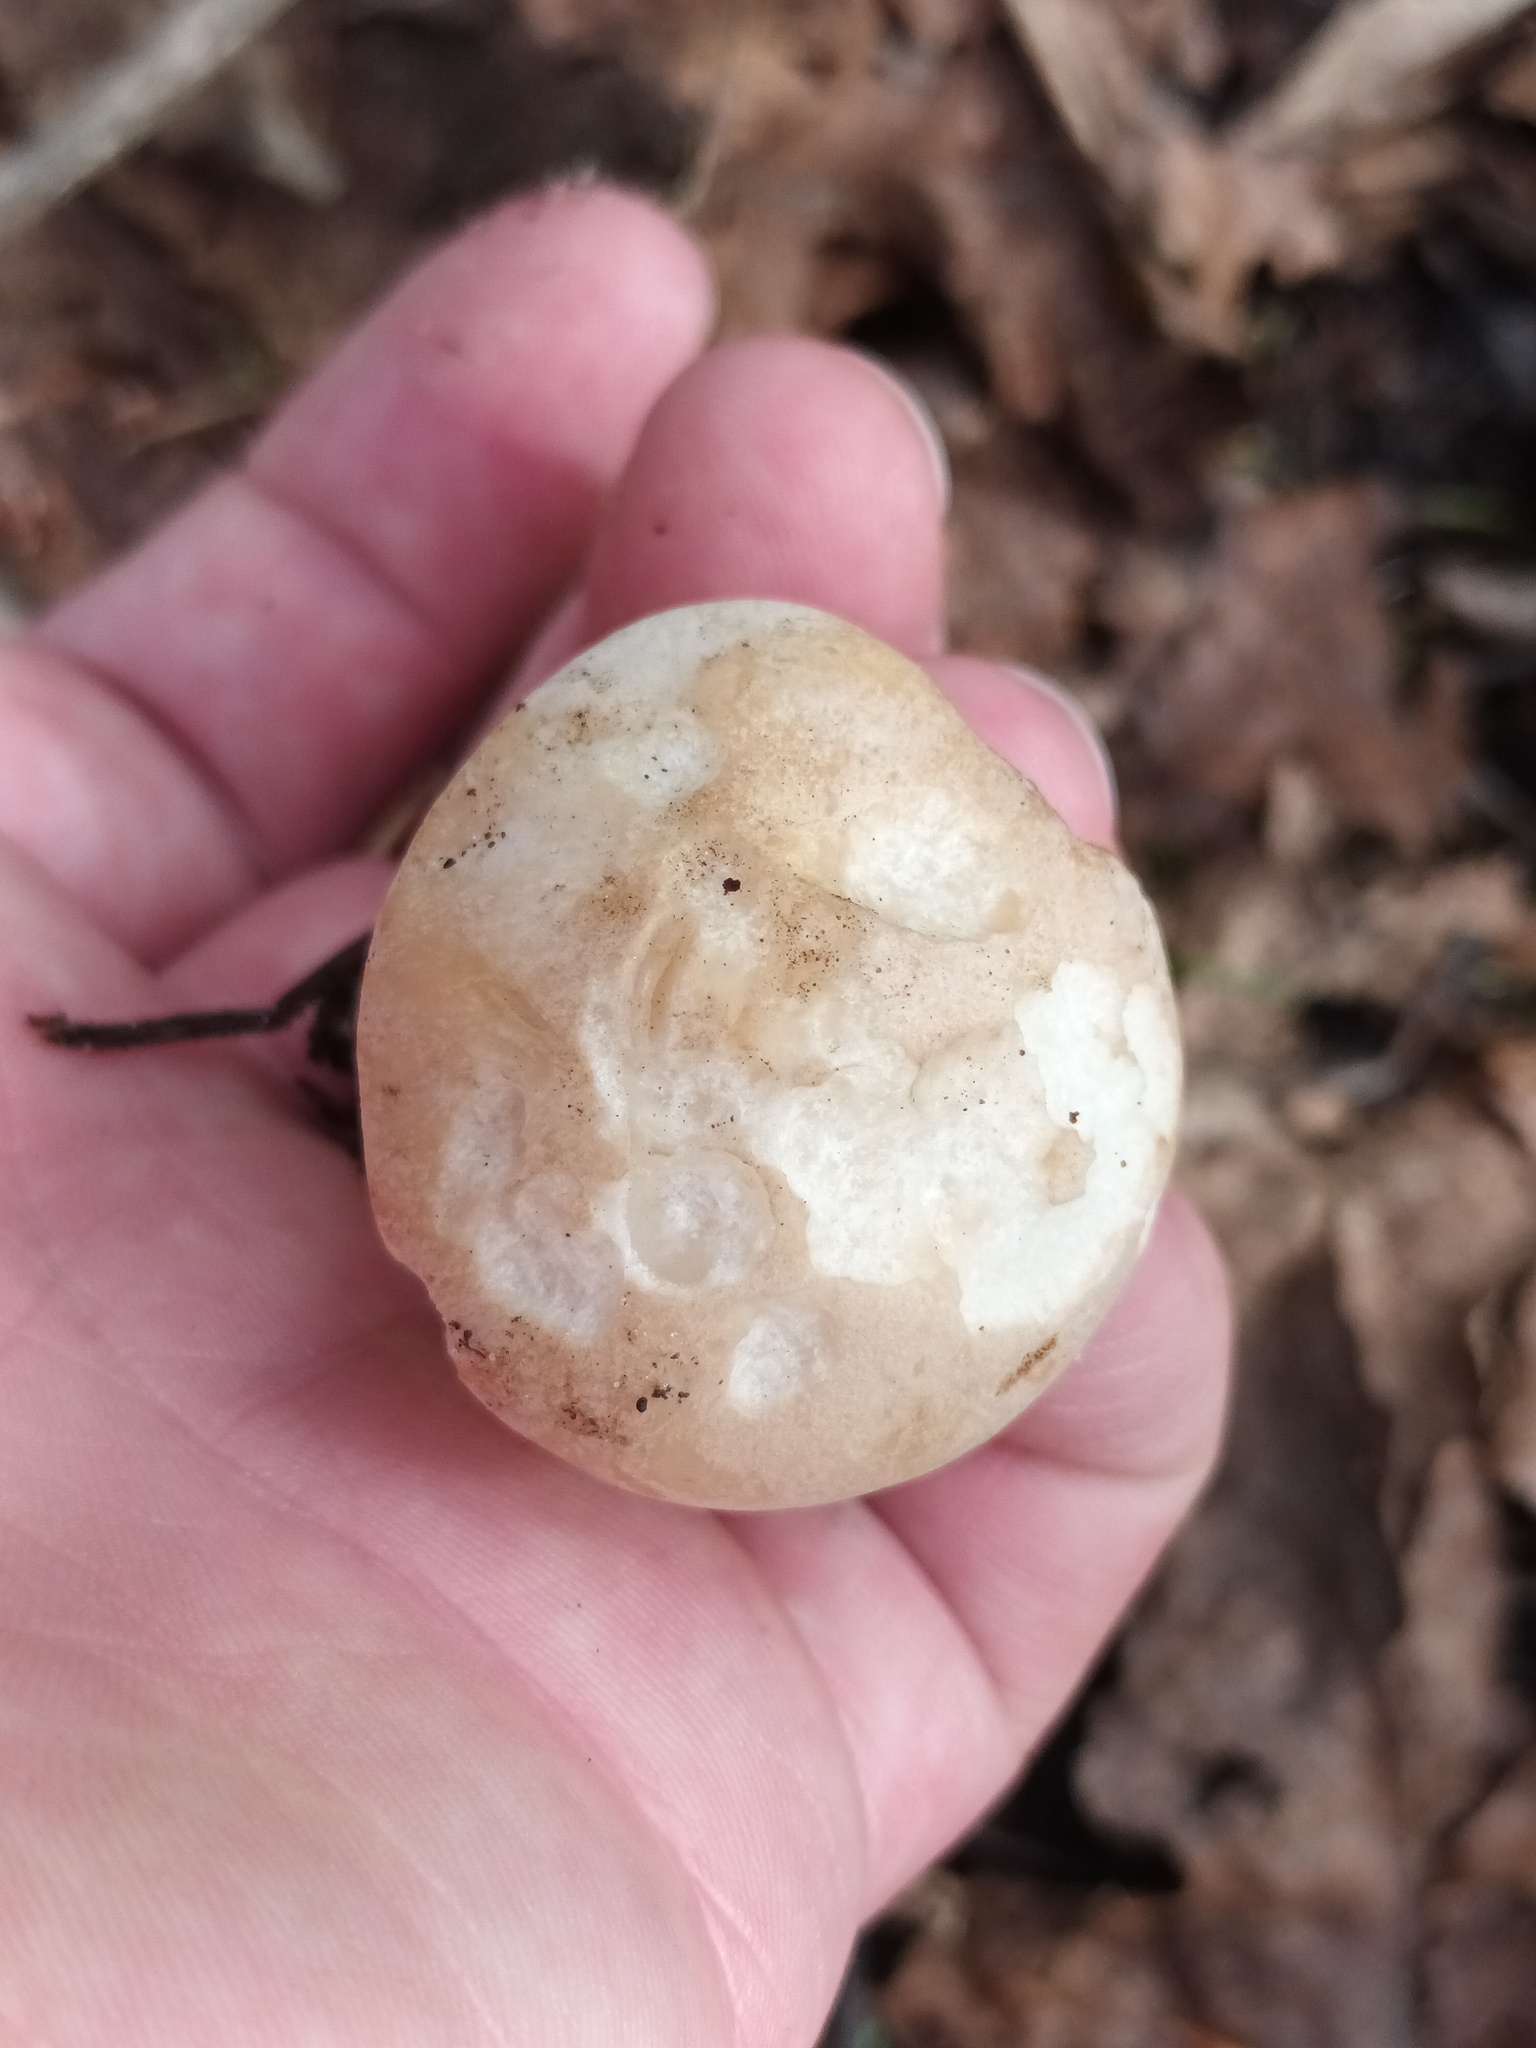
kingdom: Fungi
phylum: Basidiomycota
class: Agaricomycetes
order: Agaricales
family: Lyophyllaceae
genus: Calocybe
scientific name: Calocybe gambosa
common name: St. george's mushroom
